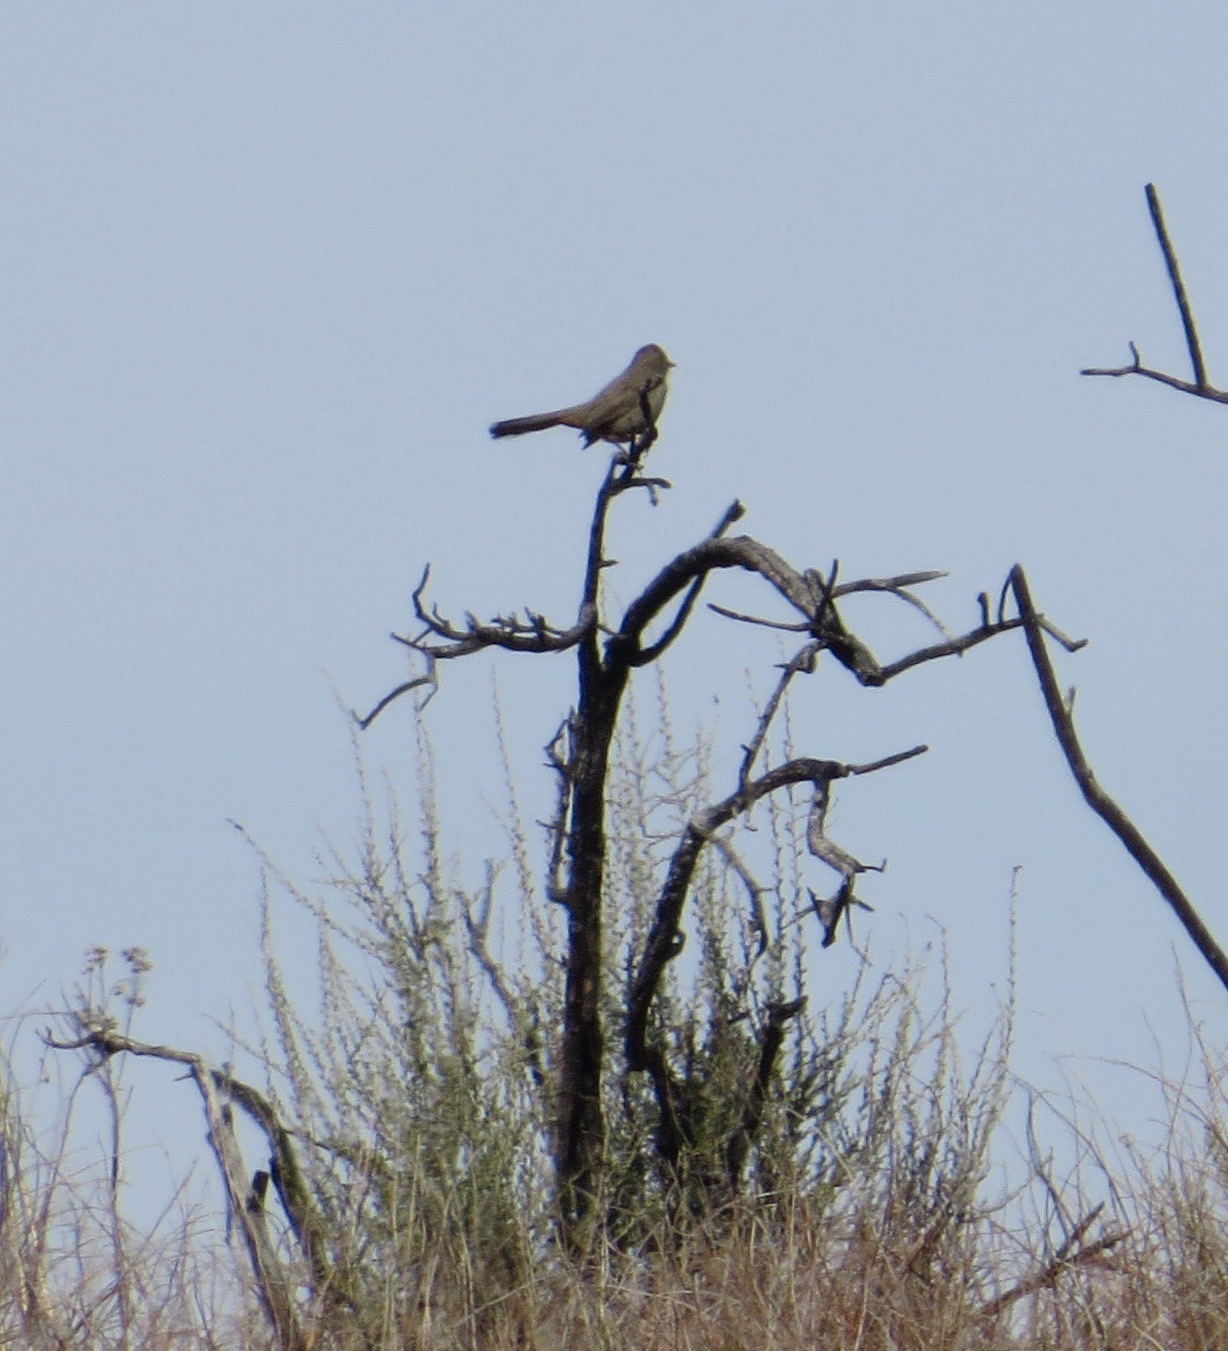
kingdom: Animalia
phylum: Chordata
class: Aves
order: Passeriformes
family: Passerellidae
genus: Melozone
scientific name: Melozone crissalis
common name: California towhee
